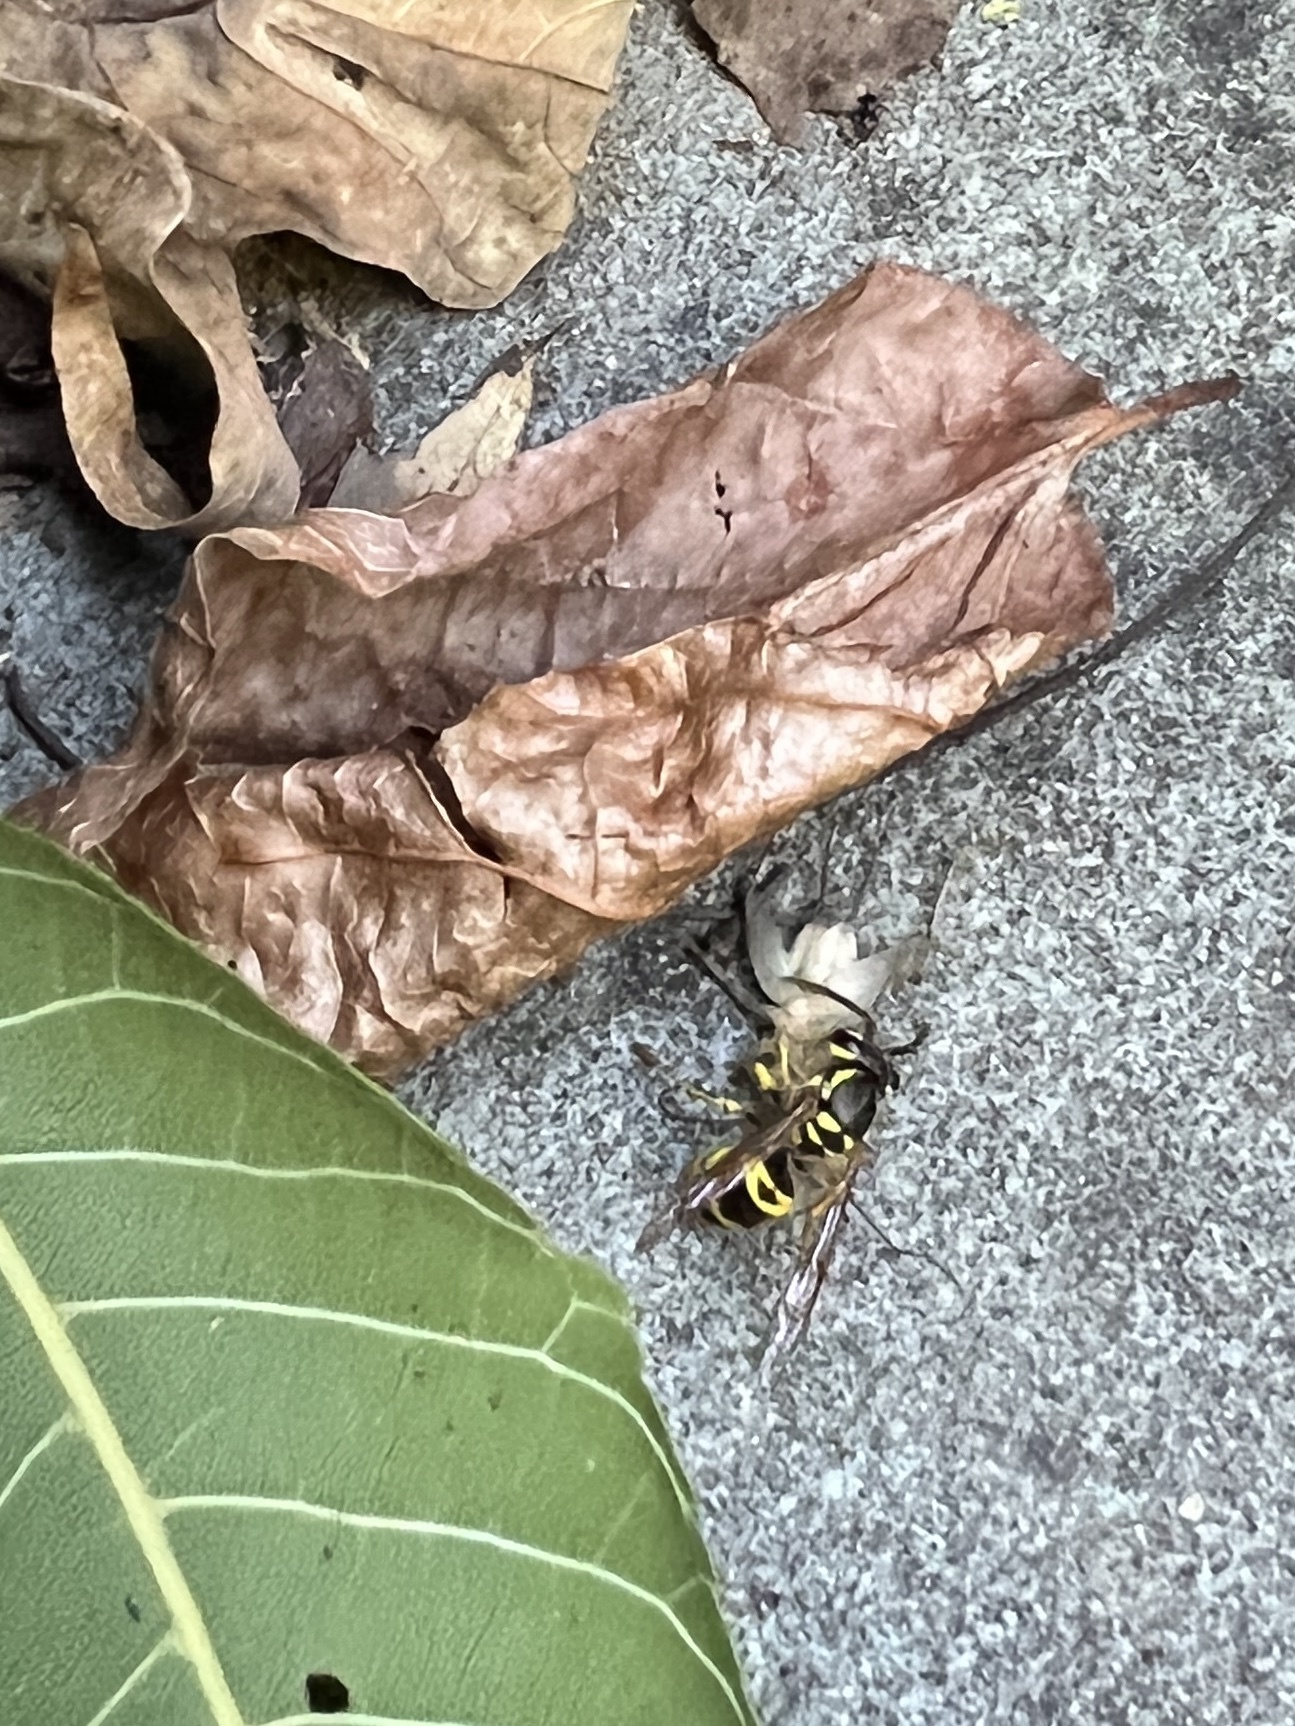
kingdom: Animalia
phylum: Arthropoda
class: Insecta
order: Hymenoptera
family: Vespidae
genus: Vespula
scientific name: Vespula maculifrons
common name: Eastern yellowjacket
